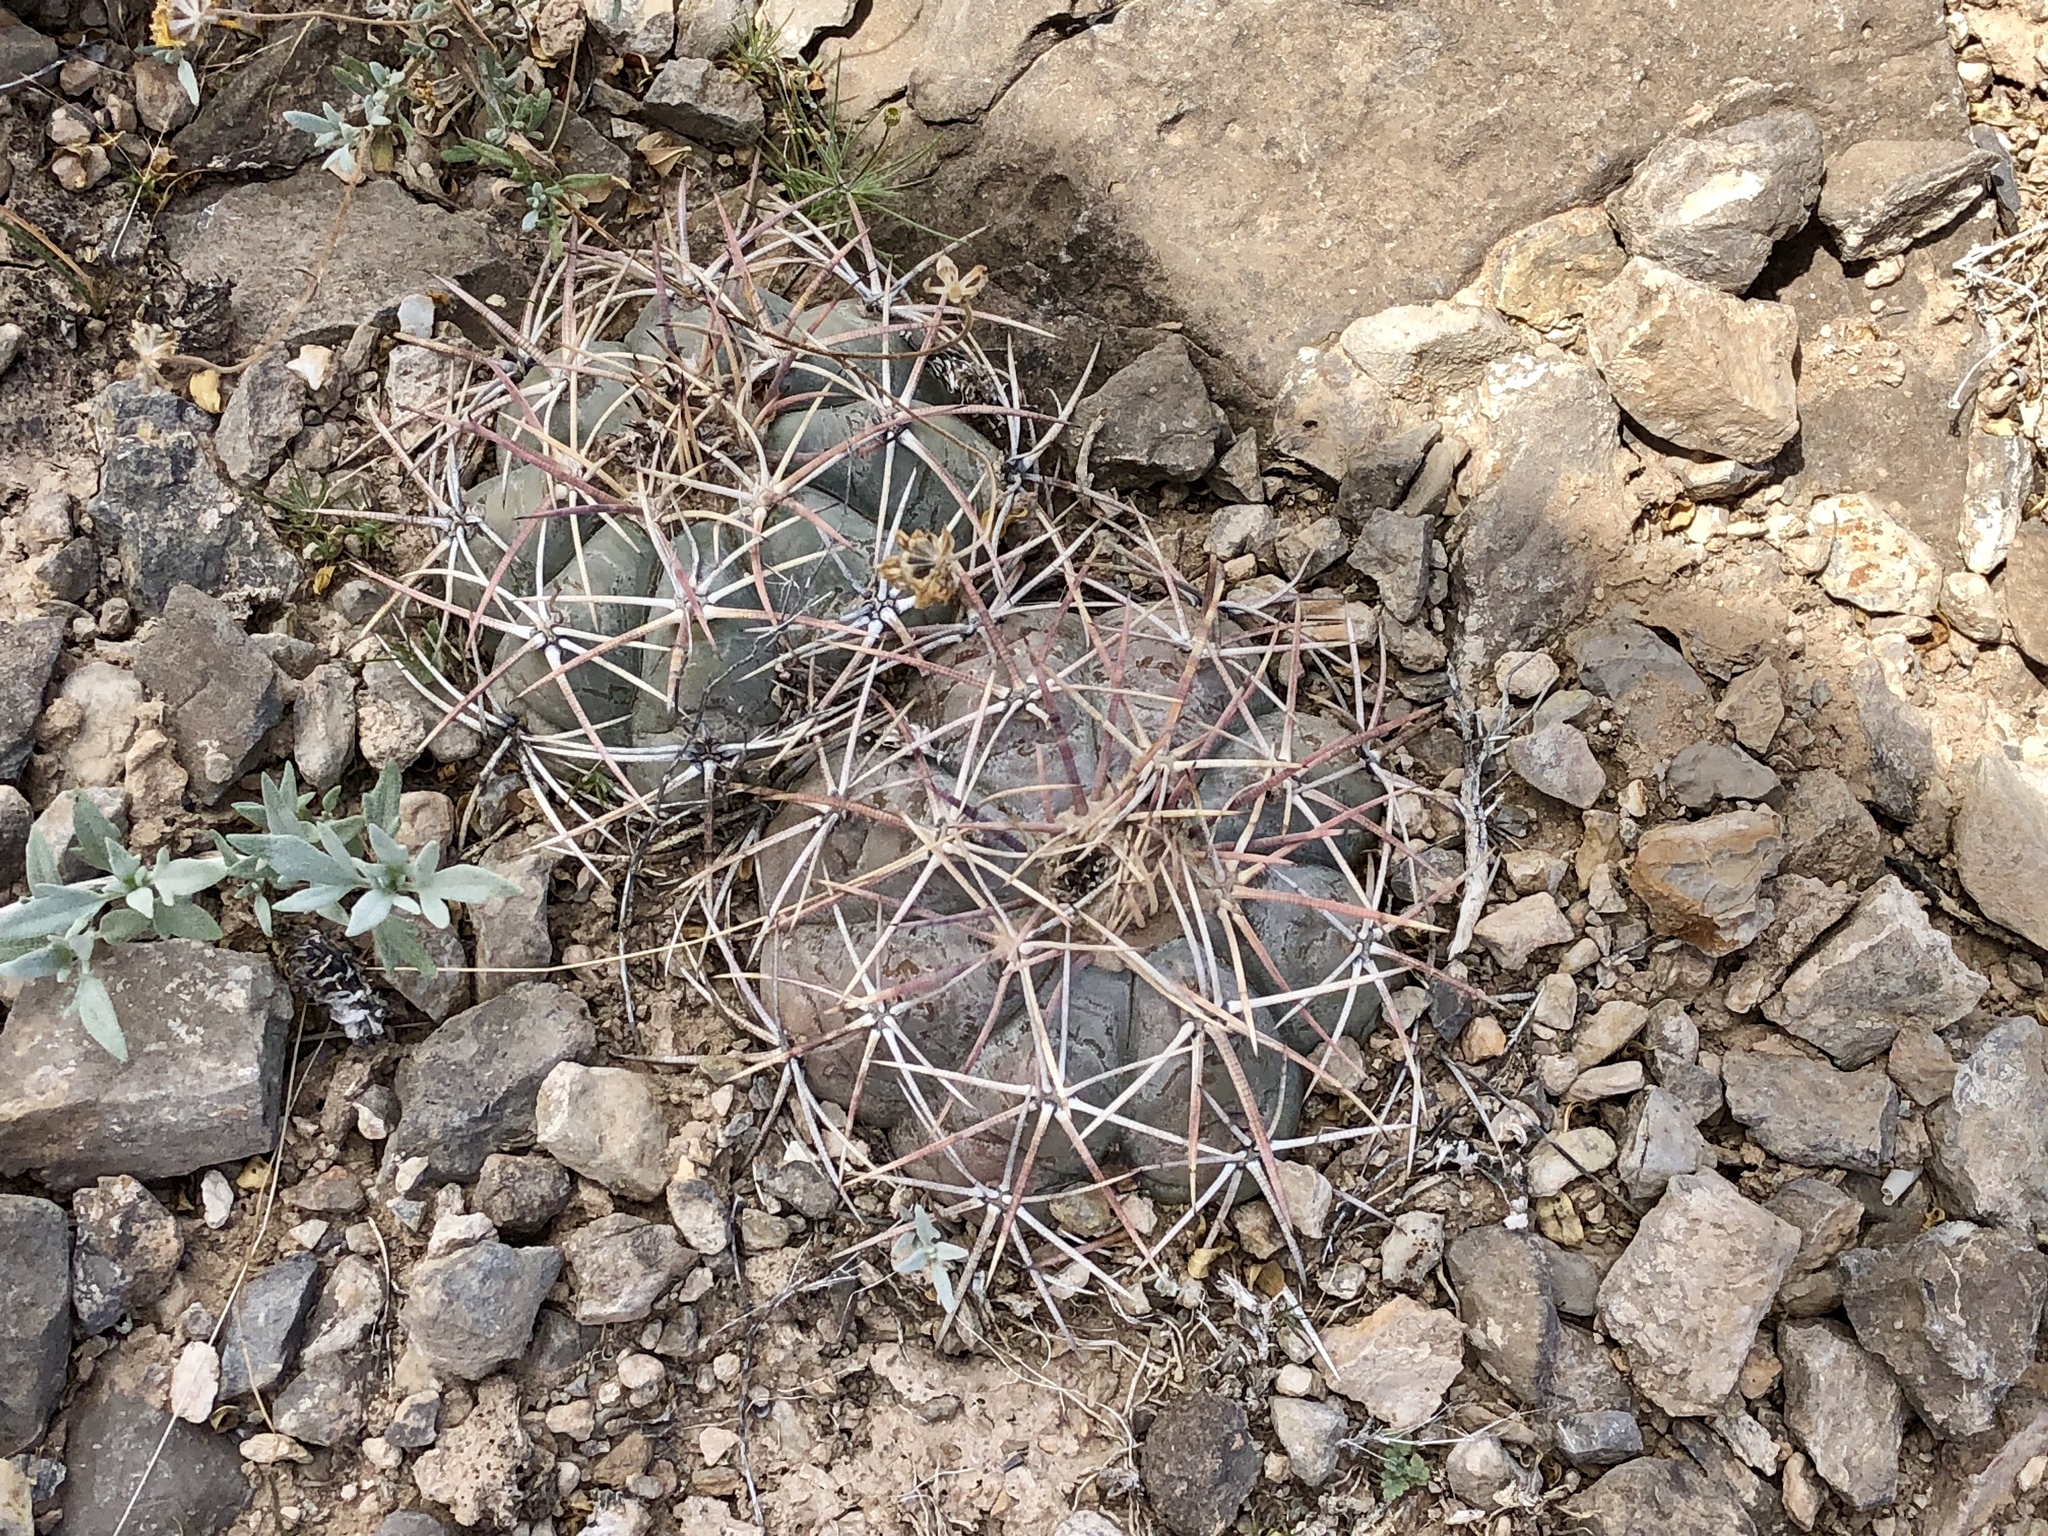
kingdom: Plantae
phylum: Tracheophyta
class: Magnoliopsida
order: Caryophyllales
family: Cactaceae
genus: Echinocactus
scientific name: Echinocactus horizonthalonius
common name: Devilshead
